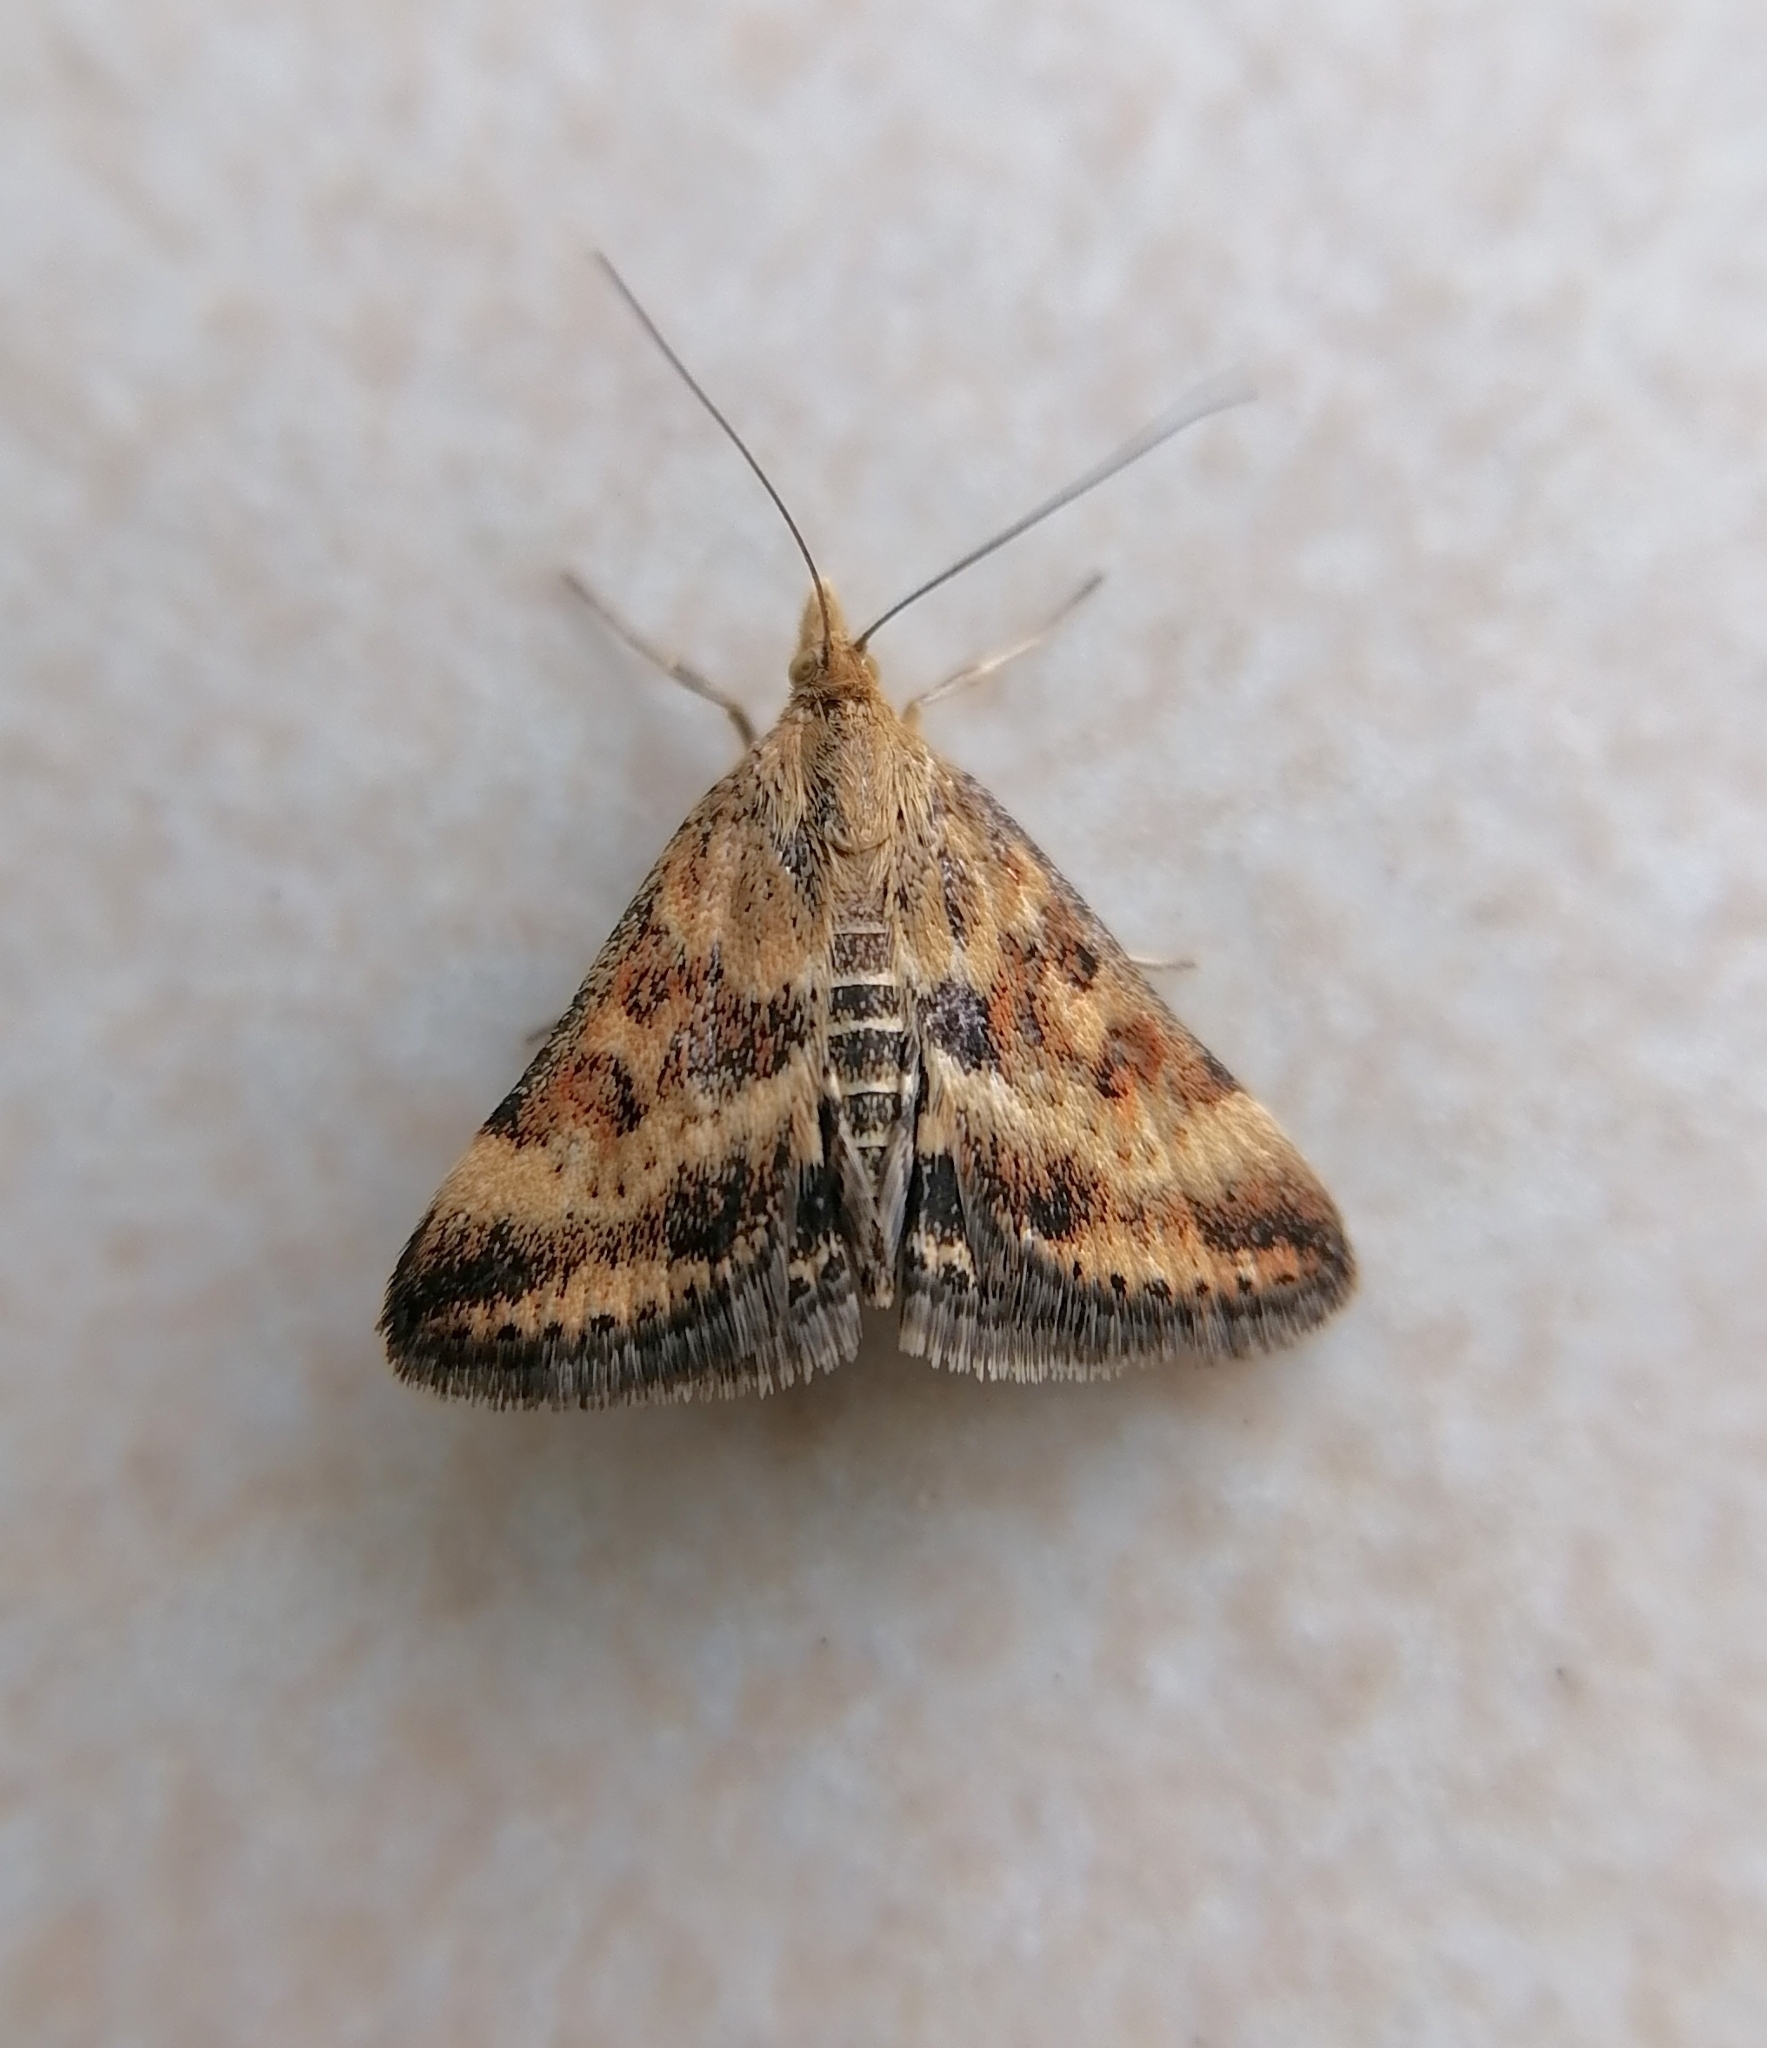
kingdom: Animalia
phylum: Arthropoda
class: Insecta
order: Lepidoptera
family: Crambidae
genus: Pyrausta
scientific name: Pyrausta despicata
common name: Straw-barred pearl
